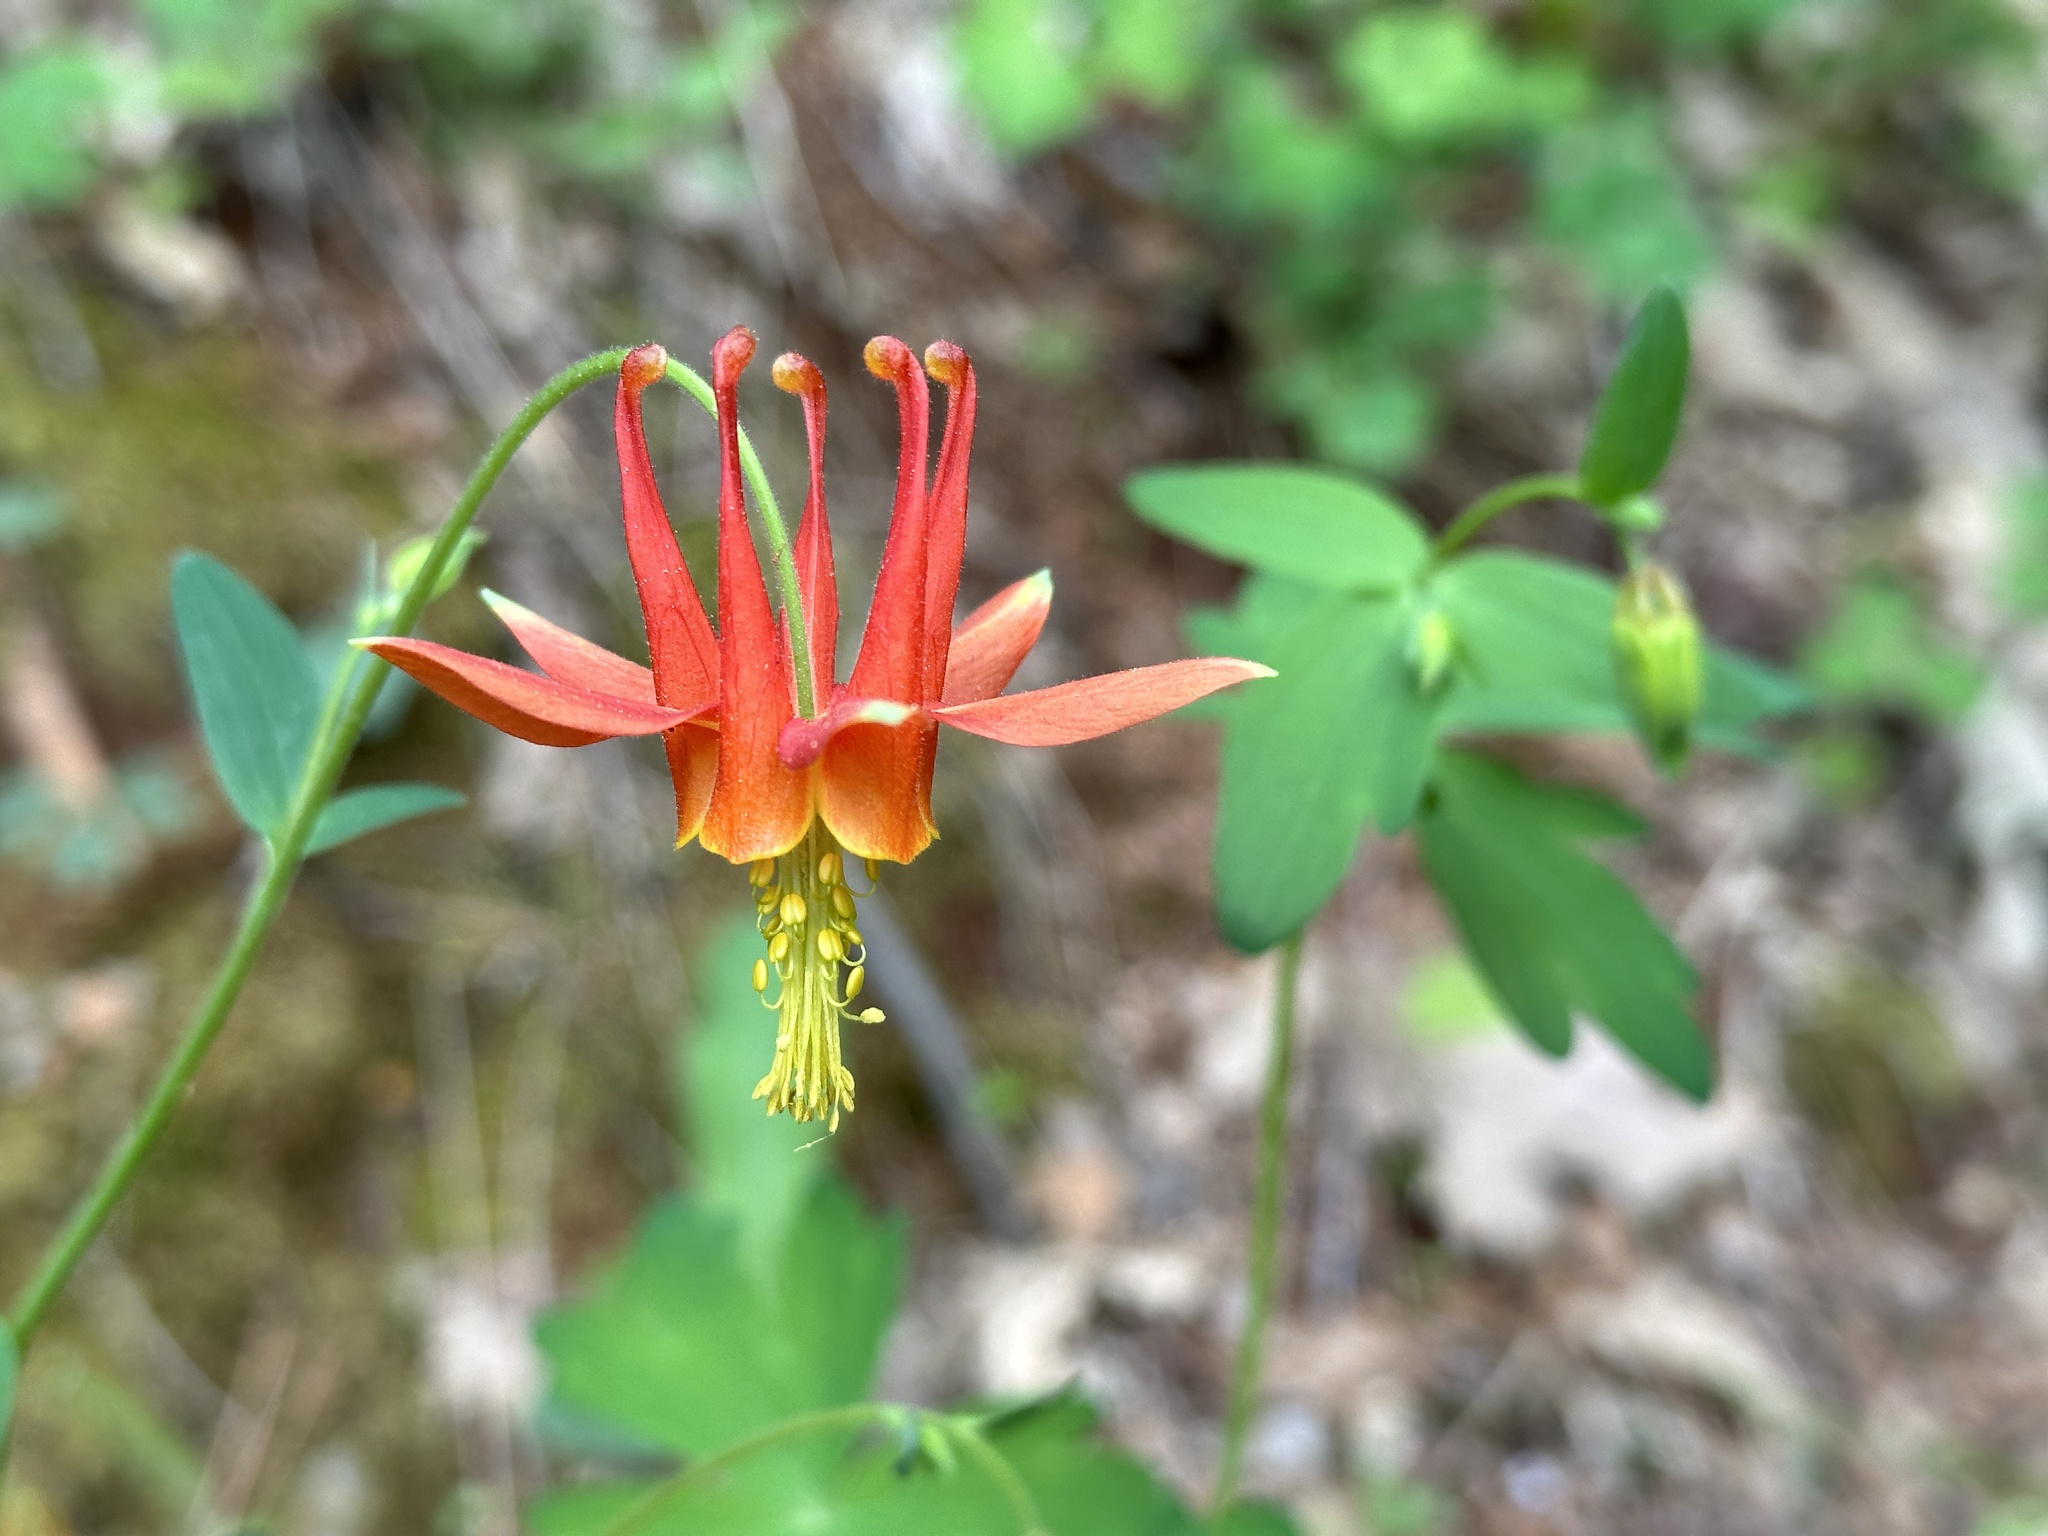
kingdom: Plantae
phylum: Tracheophyta
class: Magnoliopsida
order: Ranunculales
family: Ranunculaceae
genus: Aquilegia
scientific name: Aquilegia formosa
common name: Sitka columbine
